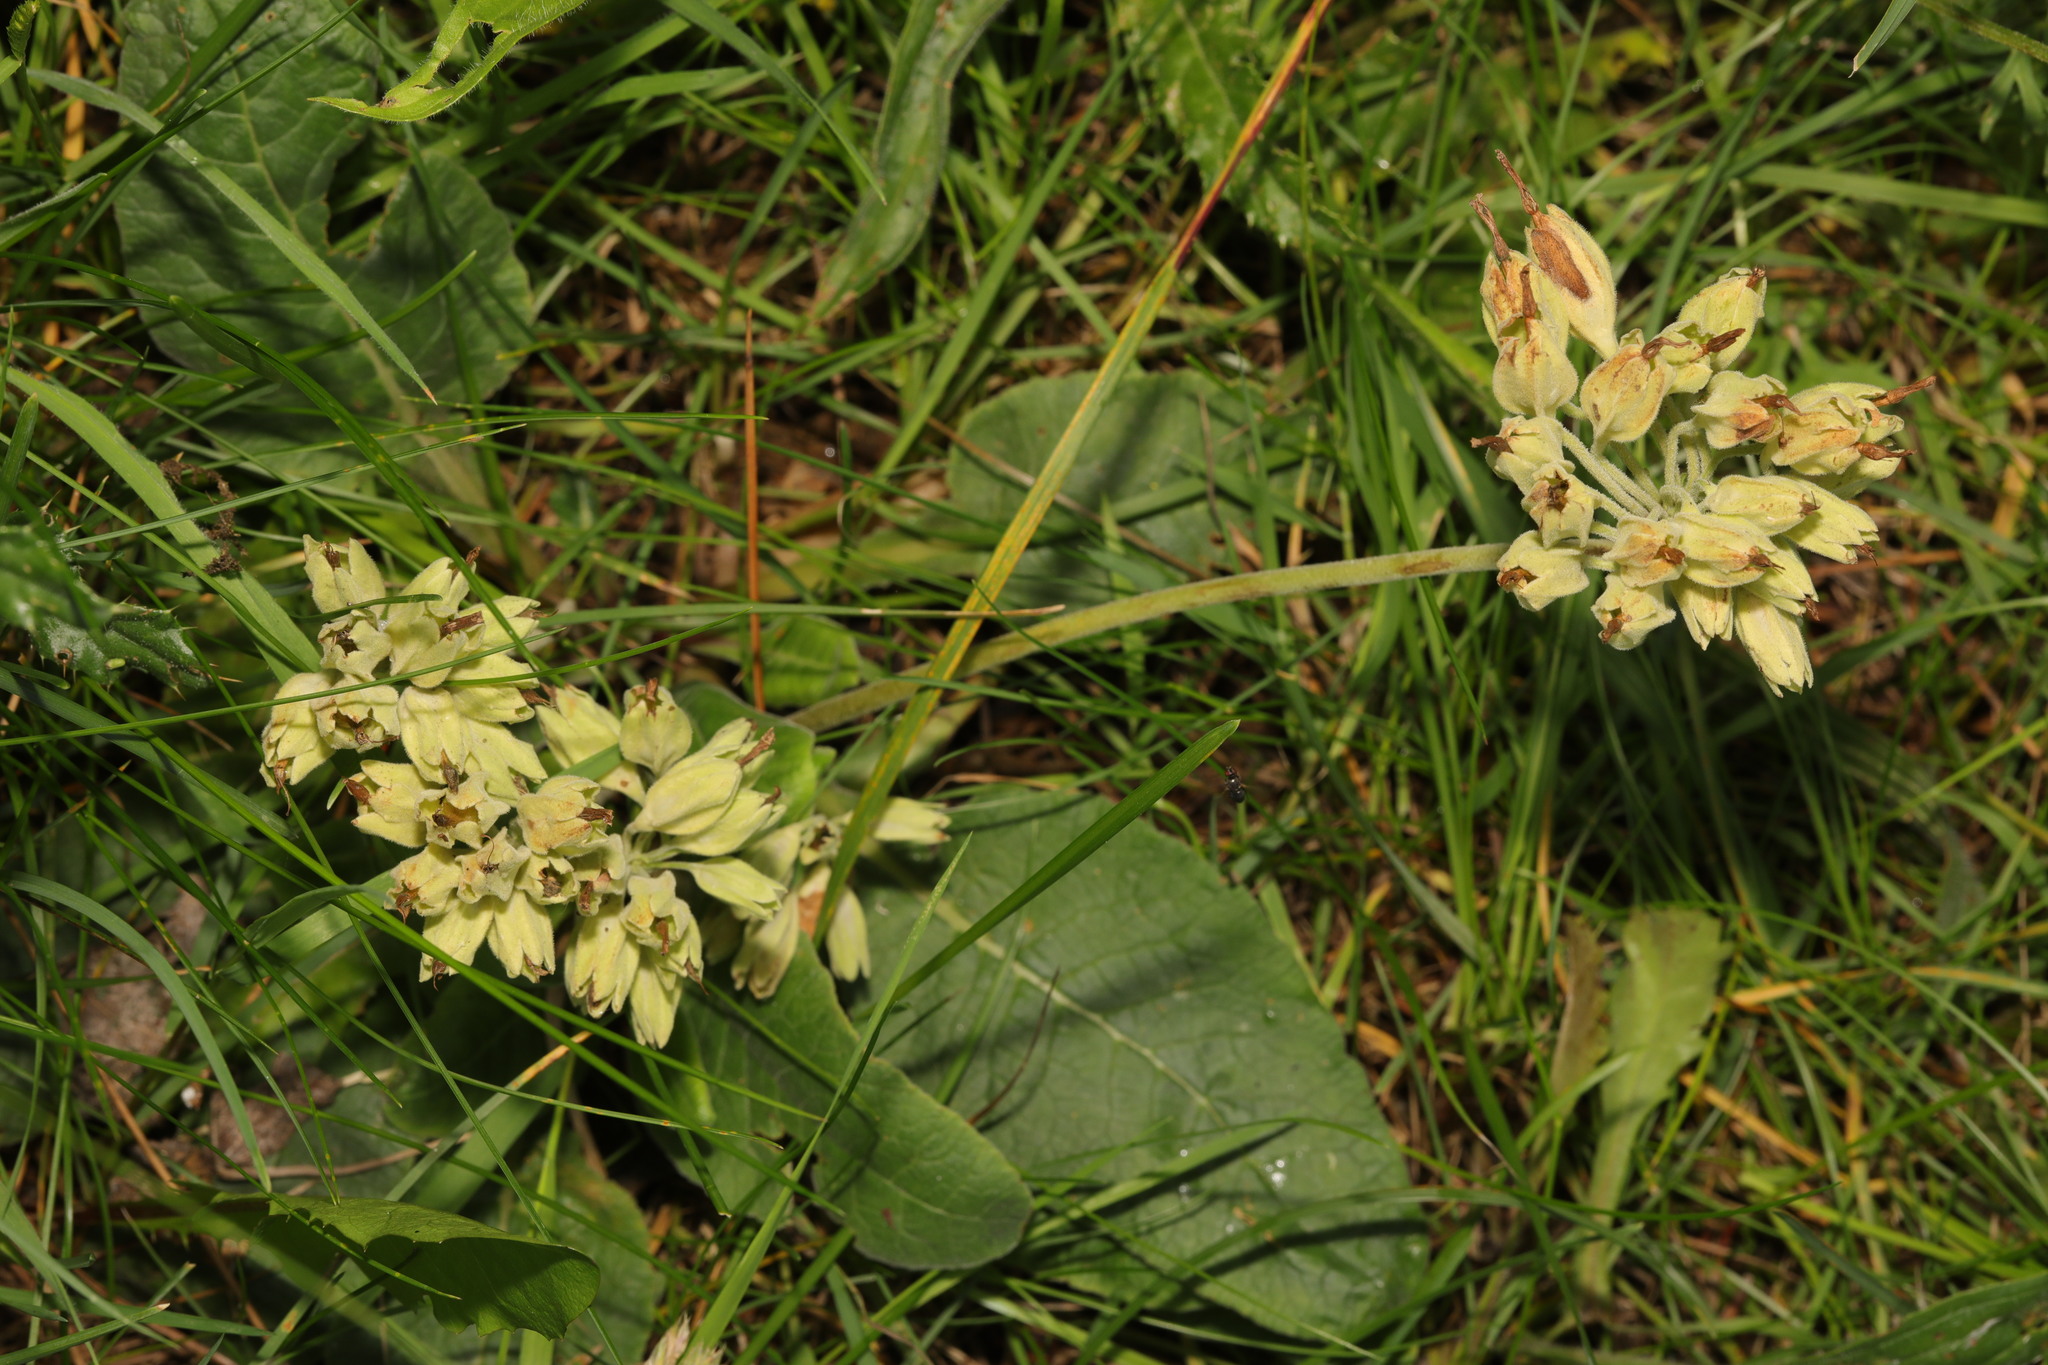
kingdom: Plantae
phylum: Tracheophyta
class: Magnoliopsida
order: Ericales
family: Primulaceae
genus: Primula
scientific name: Primula veris
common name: Cowslip
